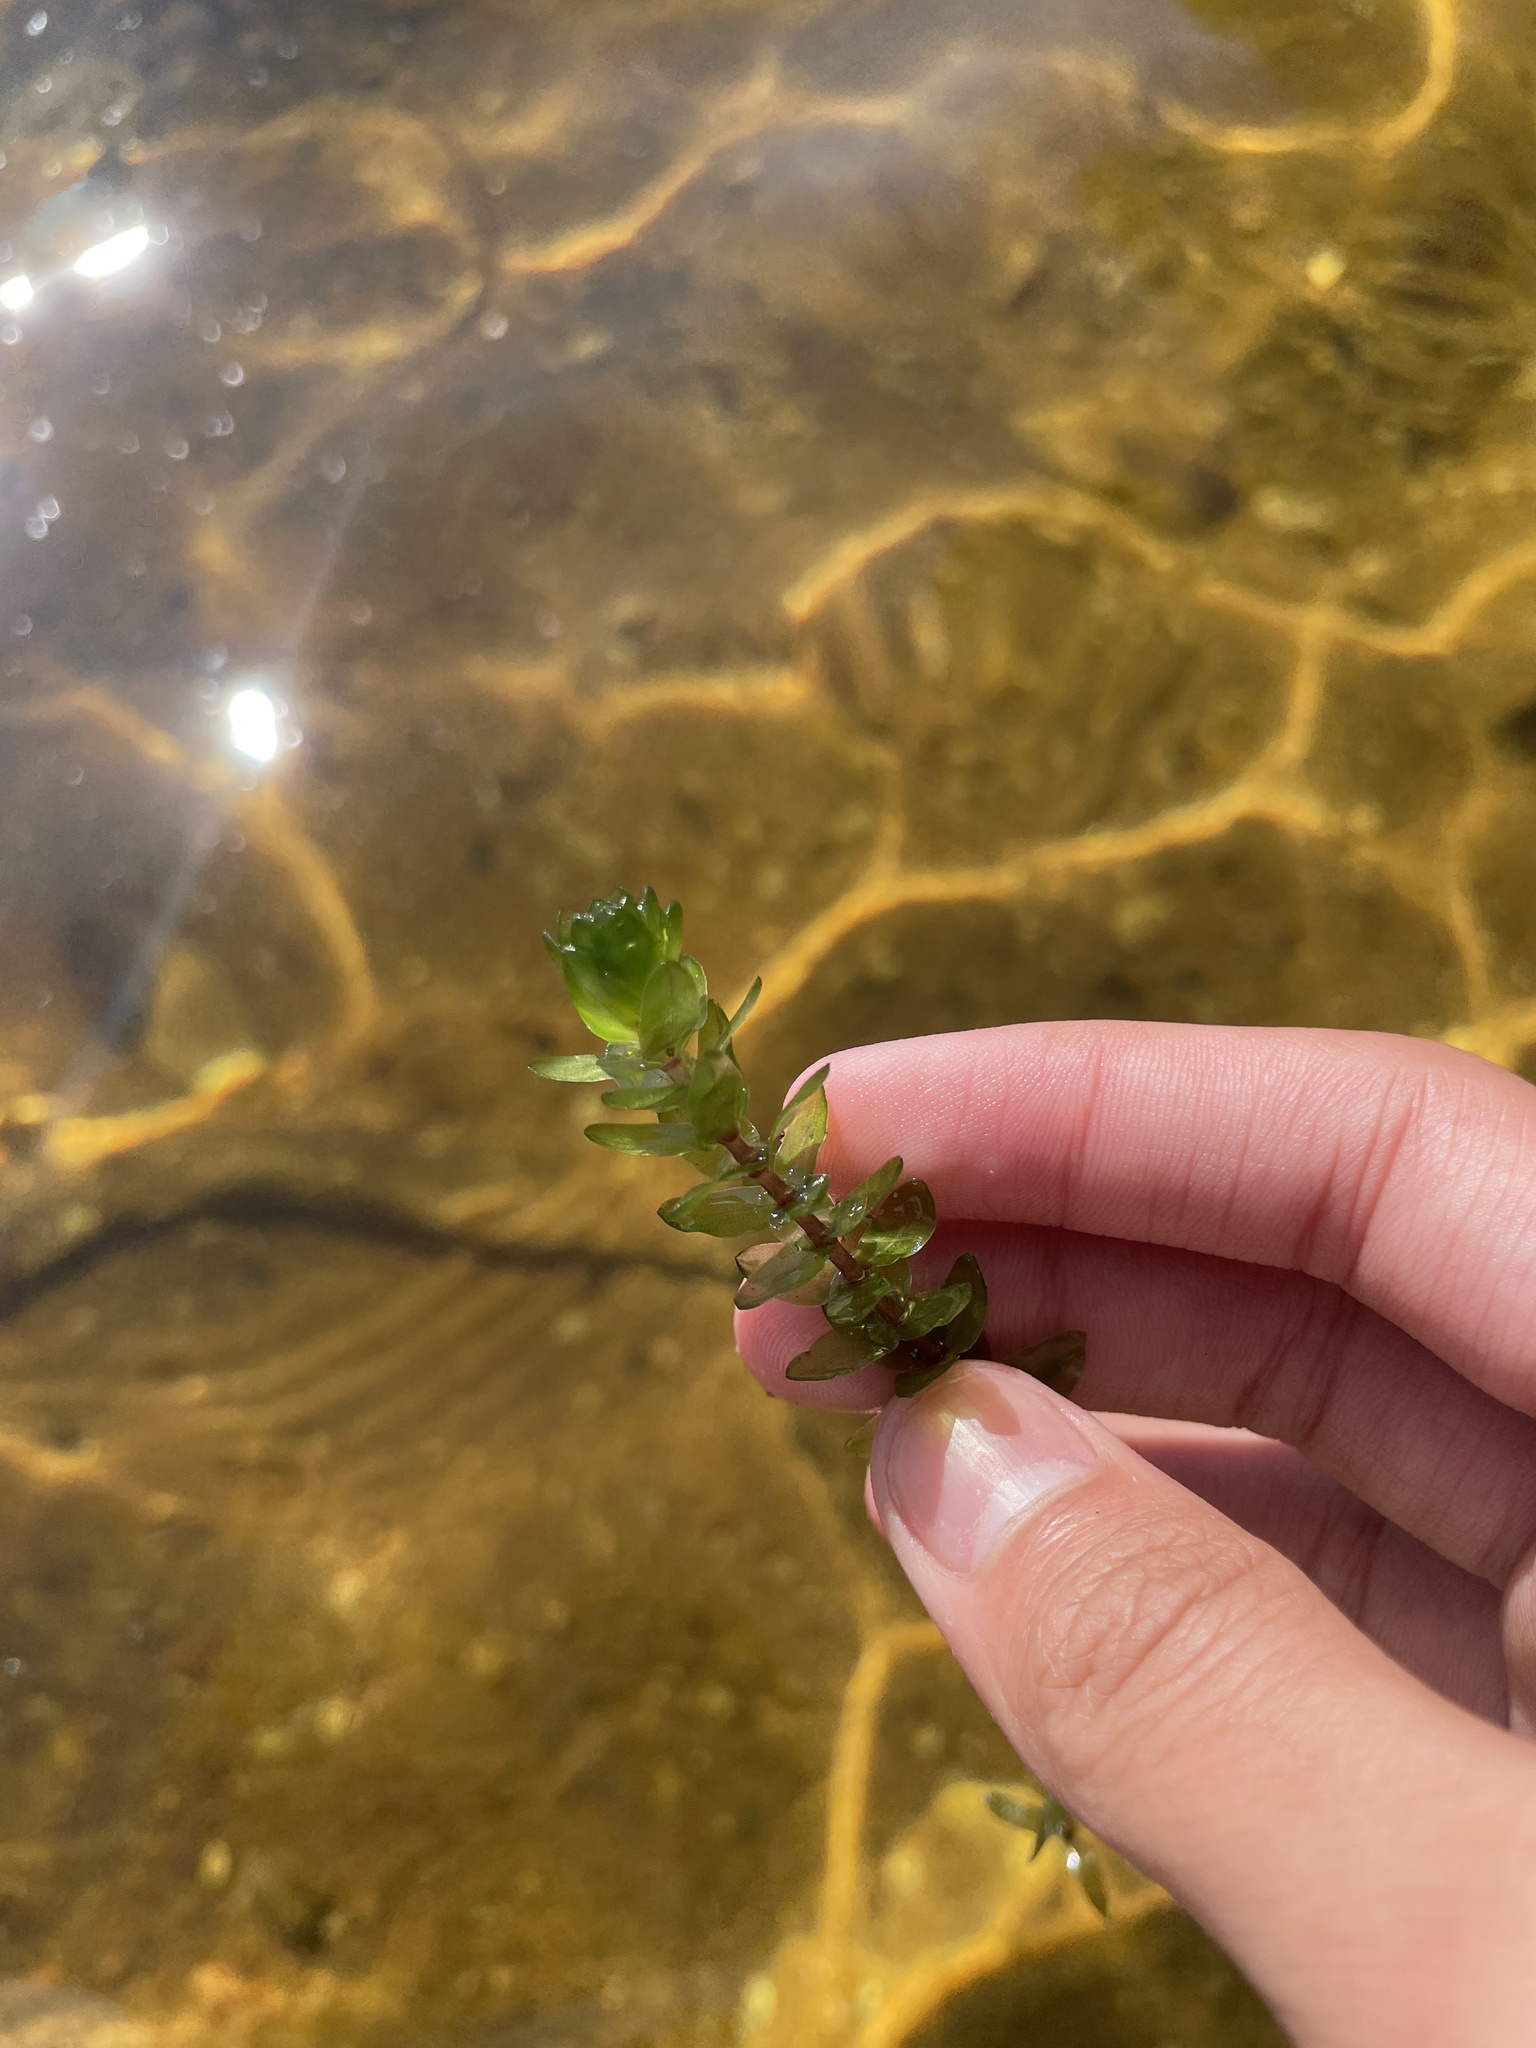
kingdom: Plantae
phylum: Tracheophyta
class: Liliopsida
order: Alismatales
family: Hydrocharitaceae
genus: Elodea
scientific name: Elodea canadensis
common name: Canadian waterweed
